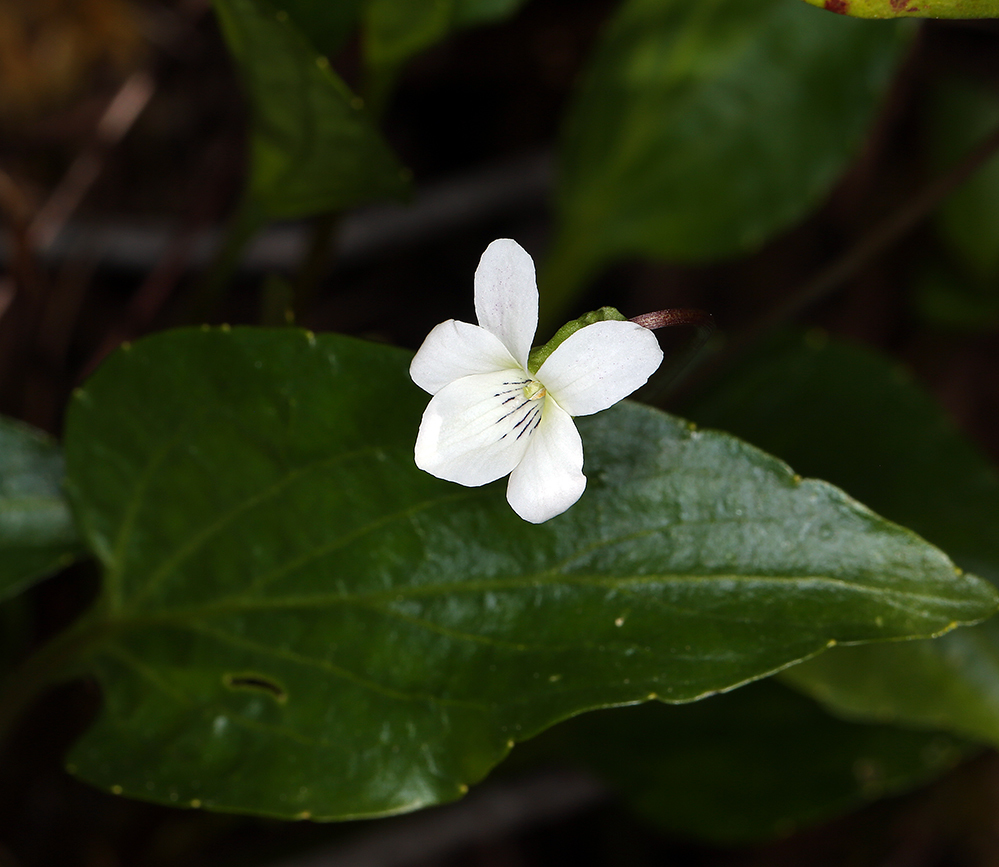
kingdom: Plantae
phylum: Tracheophyta
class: Magnoliopsida
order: Malpighiales
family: Violaceae
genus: Viola
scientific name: Viola occidentalis
